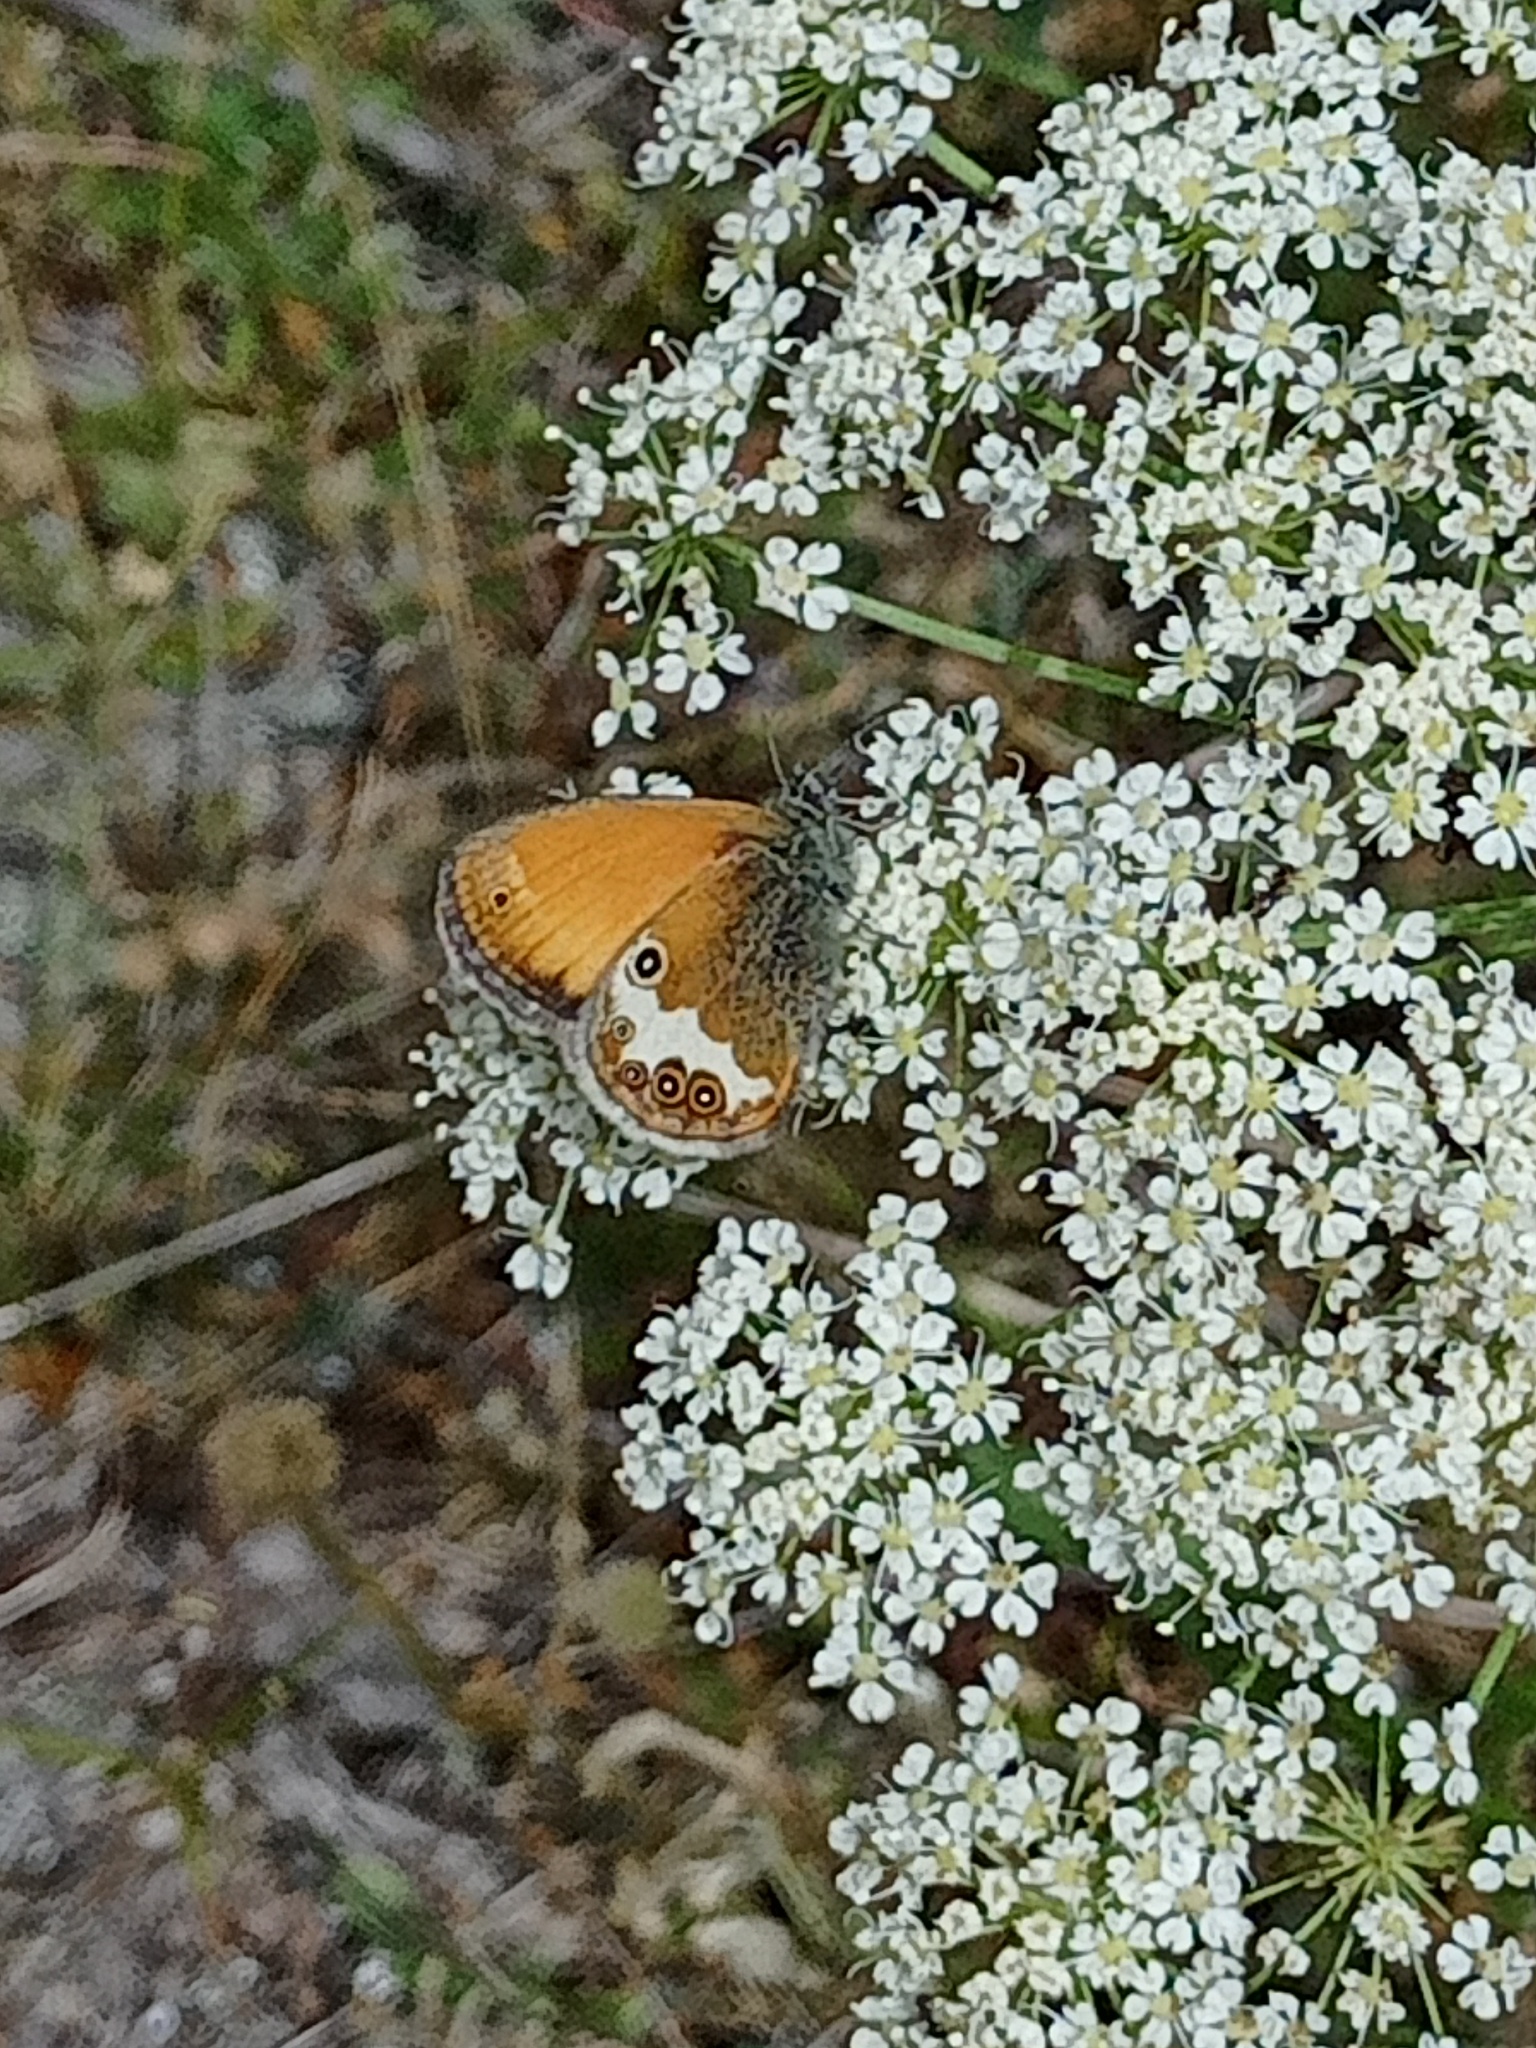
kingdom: Animalia
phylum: Arthropoda
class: Insecta
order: Lepidoptera
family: Nymphalidae
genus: Coenonympha
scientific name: Coenonympha arcania
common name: Pearly heath
